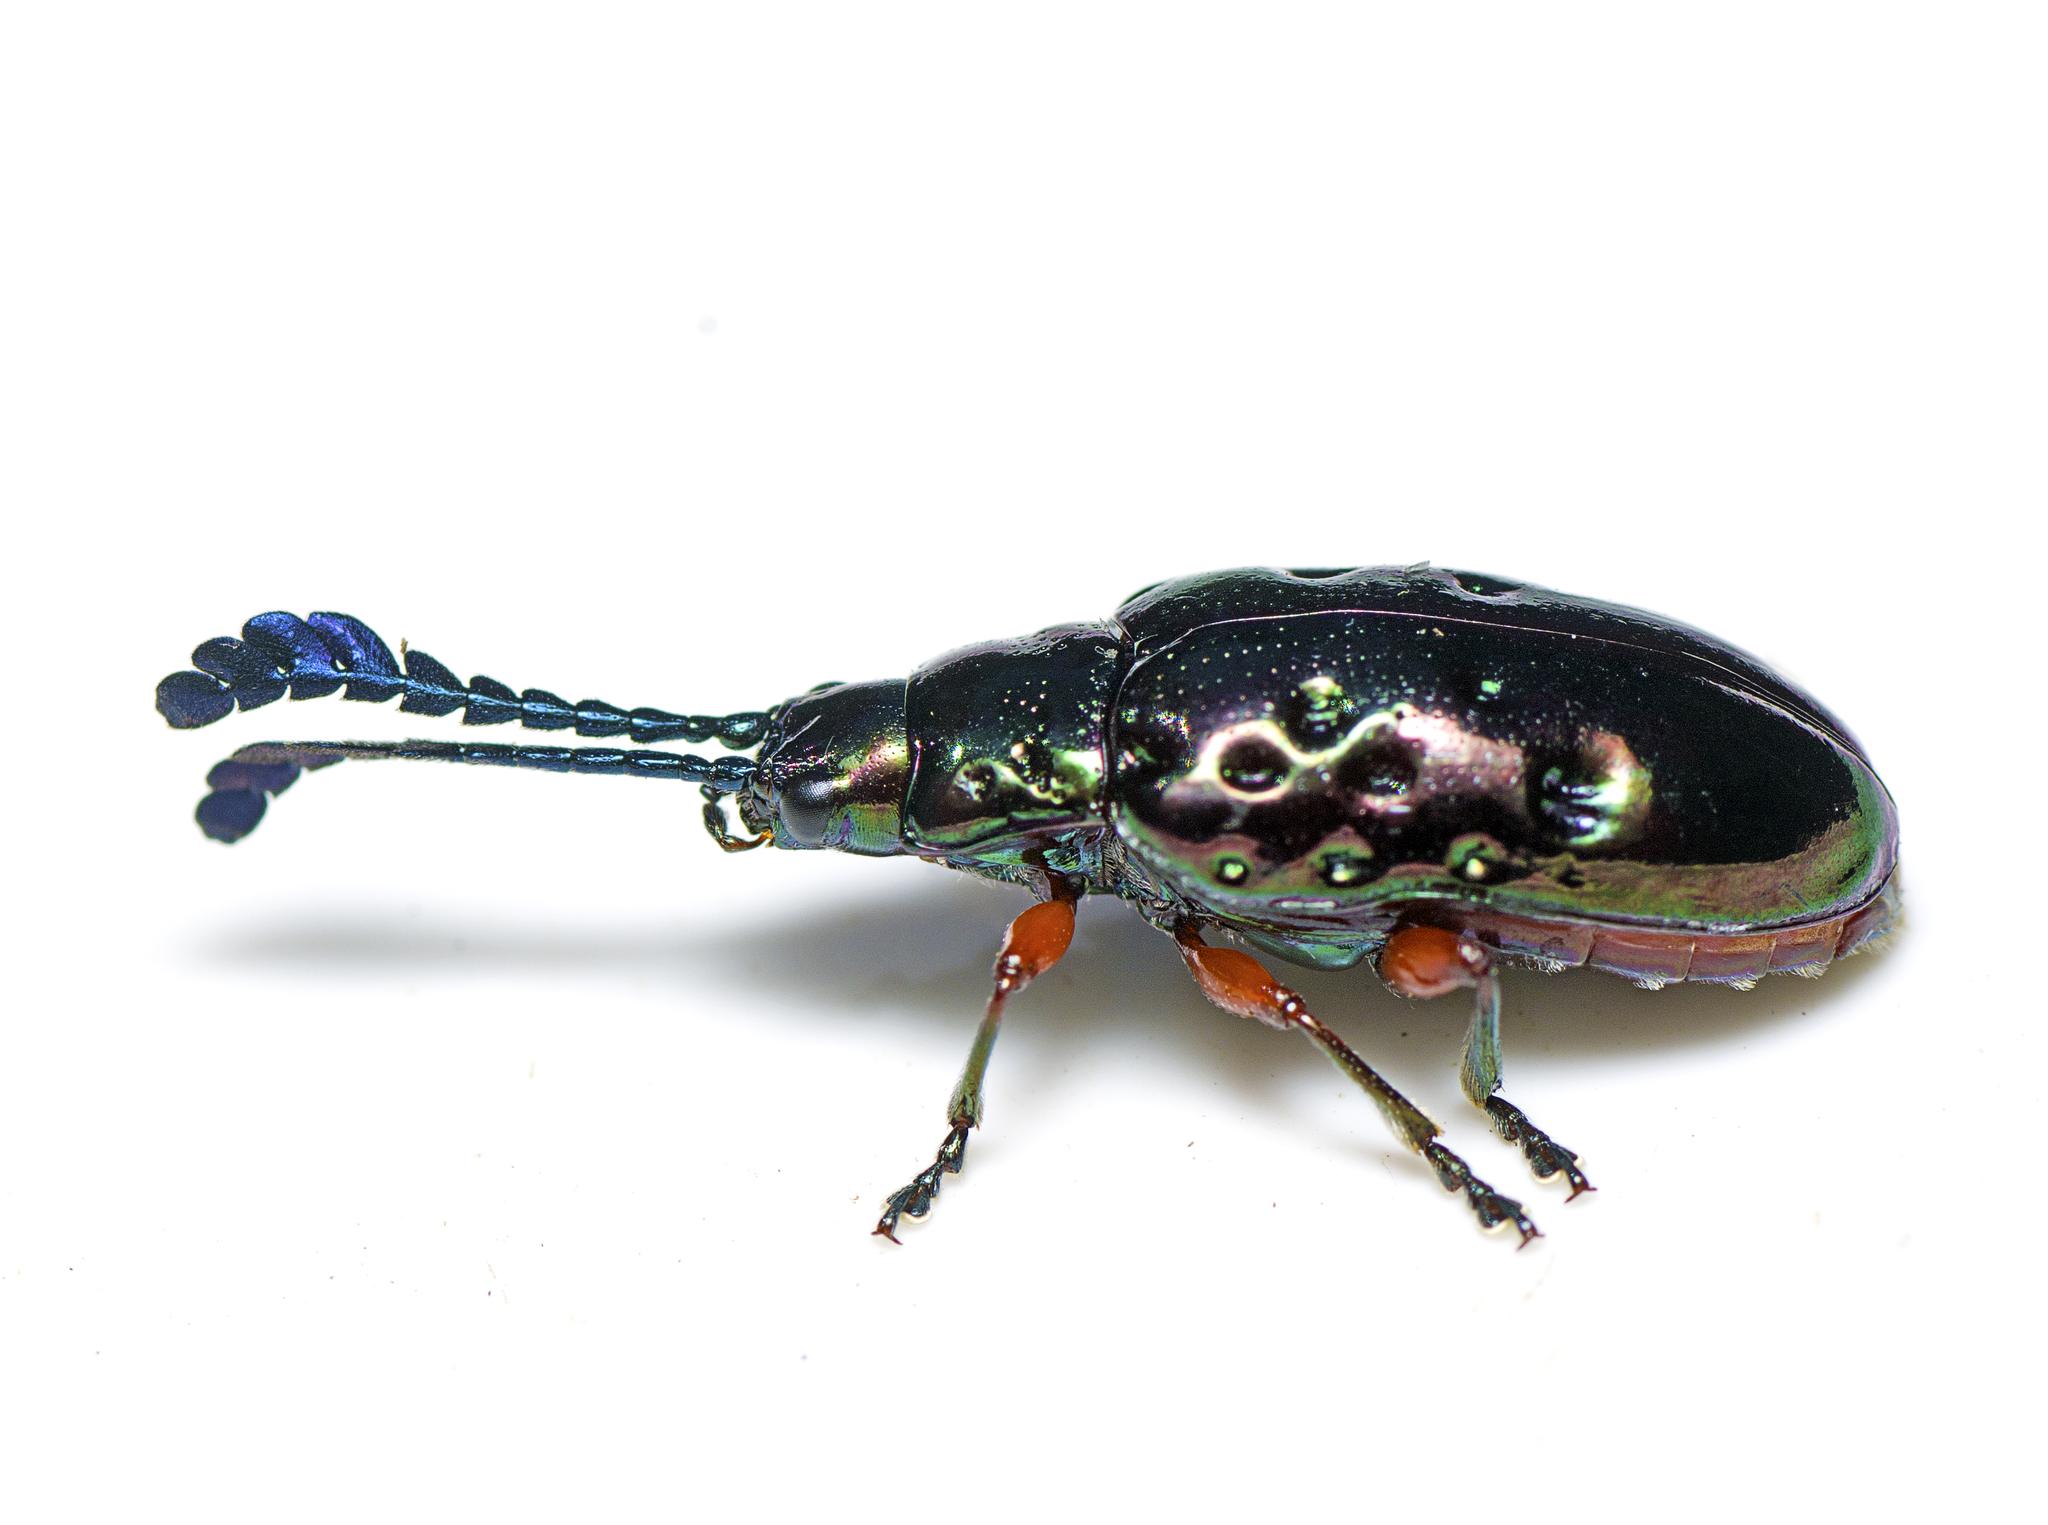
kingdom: Animalia
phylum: Arthropoda
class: Insecta
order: Coleoptera
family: Chrysomelidae
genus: Johannica
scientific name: Johannica gemellata
